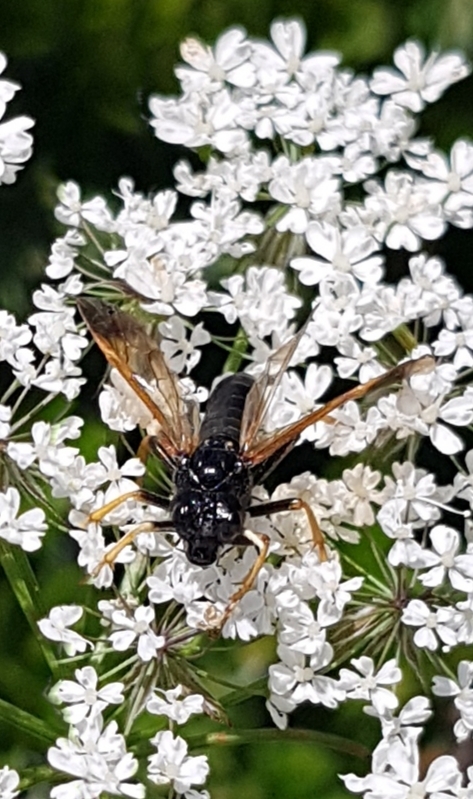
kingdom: Animalia
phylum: Arthropoda
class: Insecta
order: Hymenoptera
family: Tenthredinidae
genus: Tenthredo
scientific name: Tenthredo crassa
